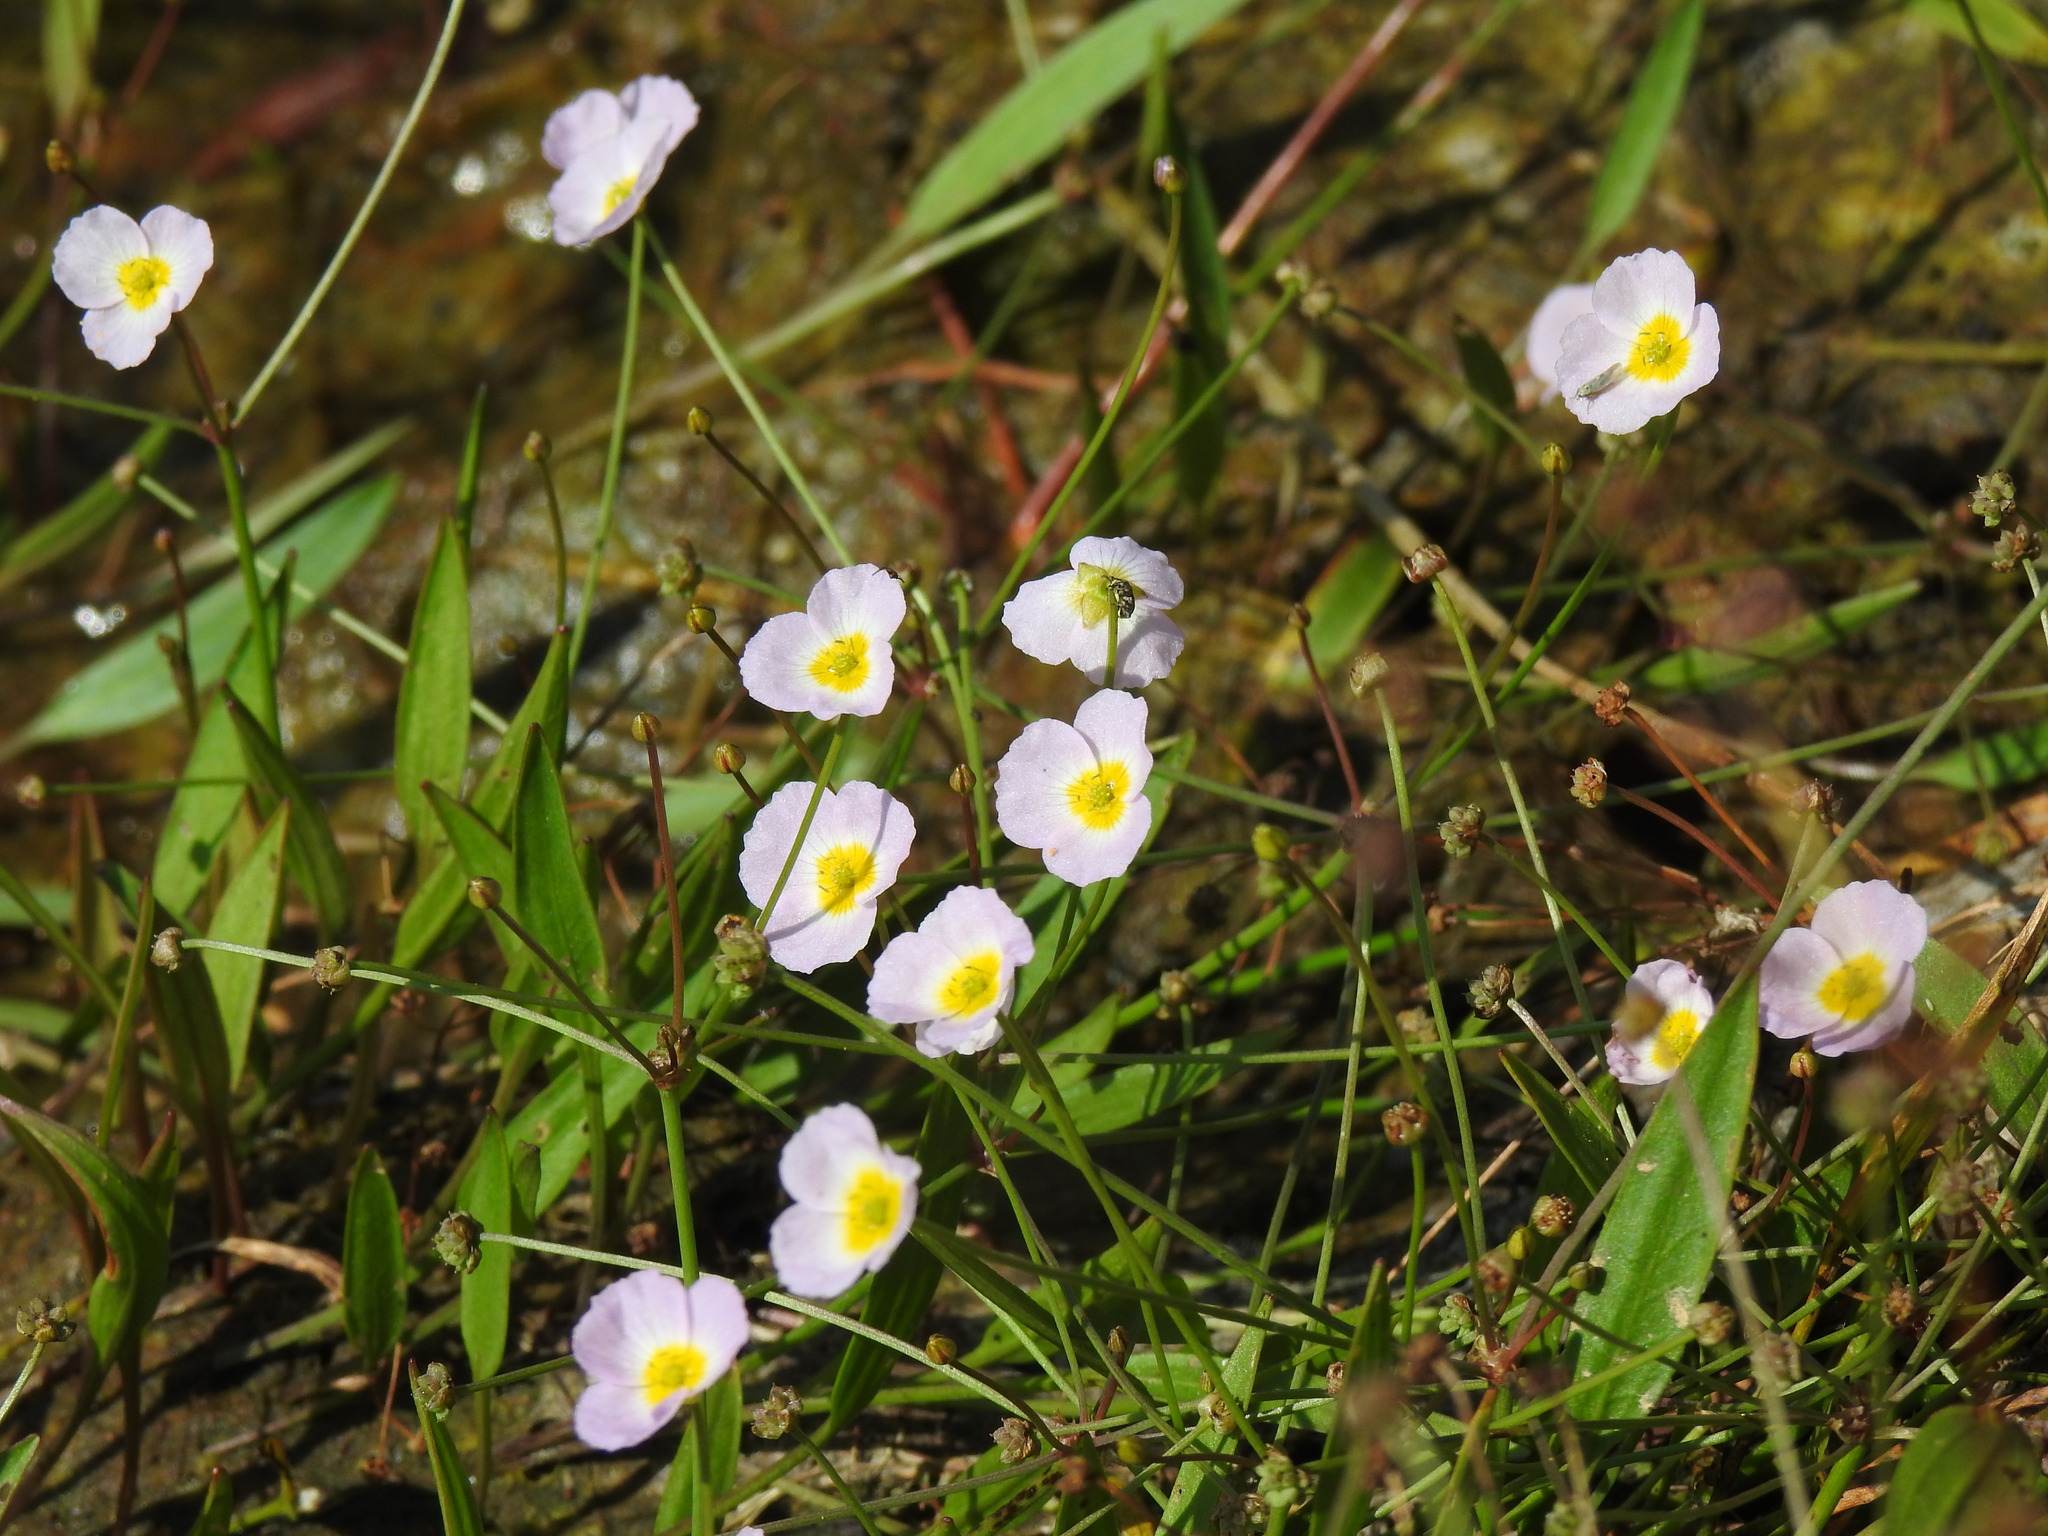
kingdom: Plantae
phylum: Tracheophyta
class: Liliopsida
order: Alismatales
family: Alismataceae
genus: Baldellia
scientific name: Baldellia repens
